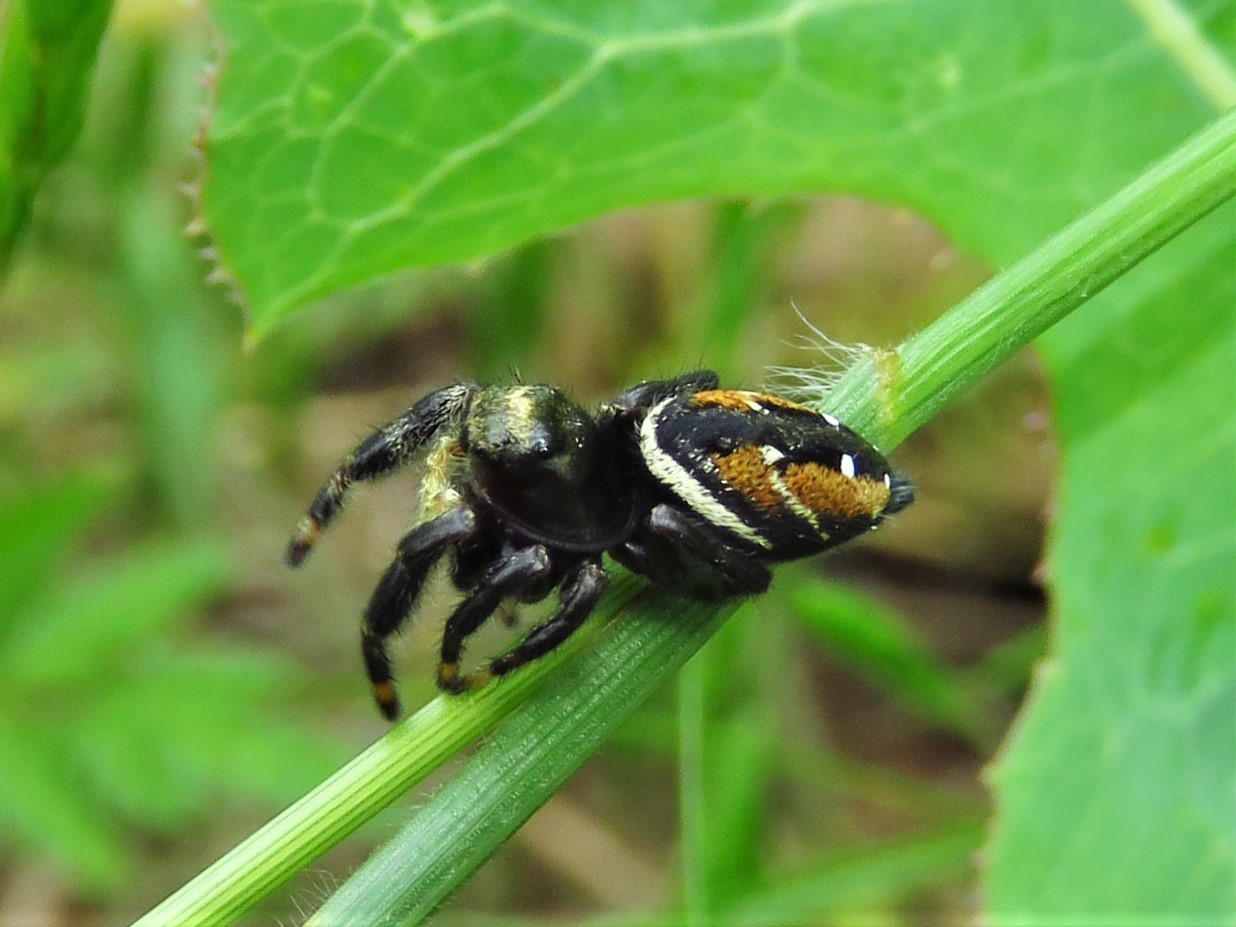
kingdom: Animalia
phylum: Arthropoda
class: Arachnida
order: Araneae
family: Salticidae
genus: Phidippus
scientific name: Phidippus clarus
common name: Brilliant jumping spider
